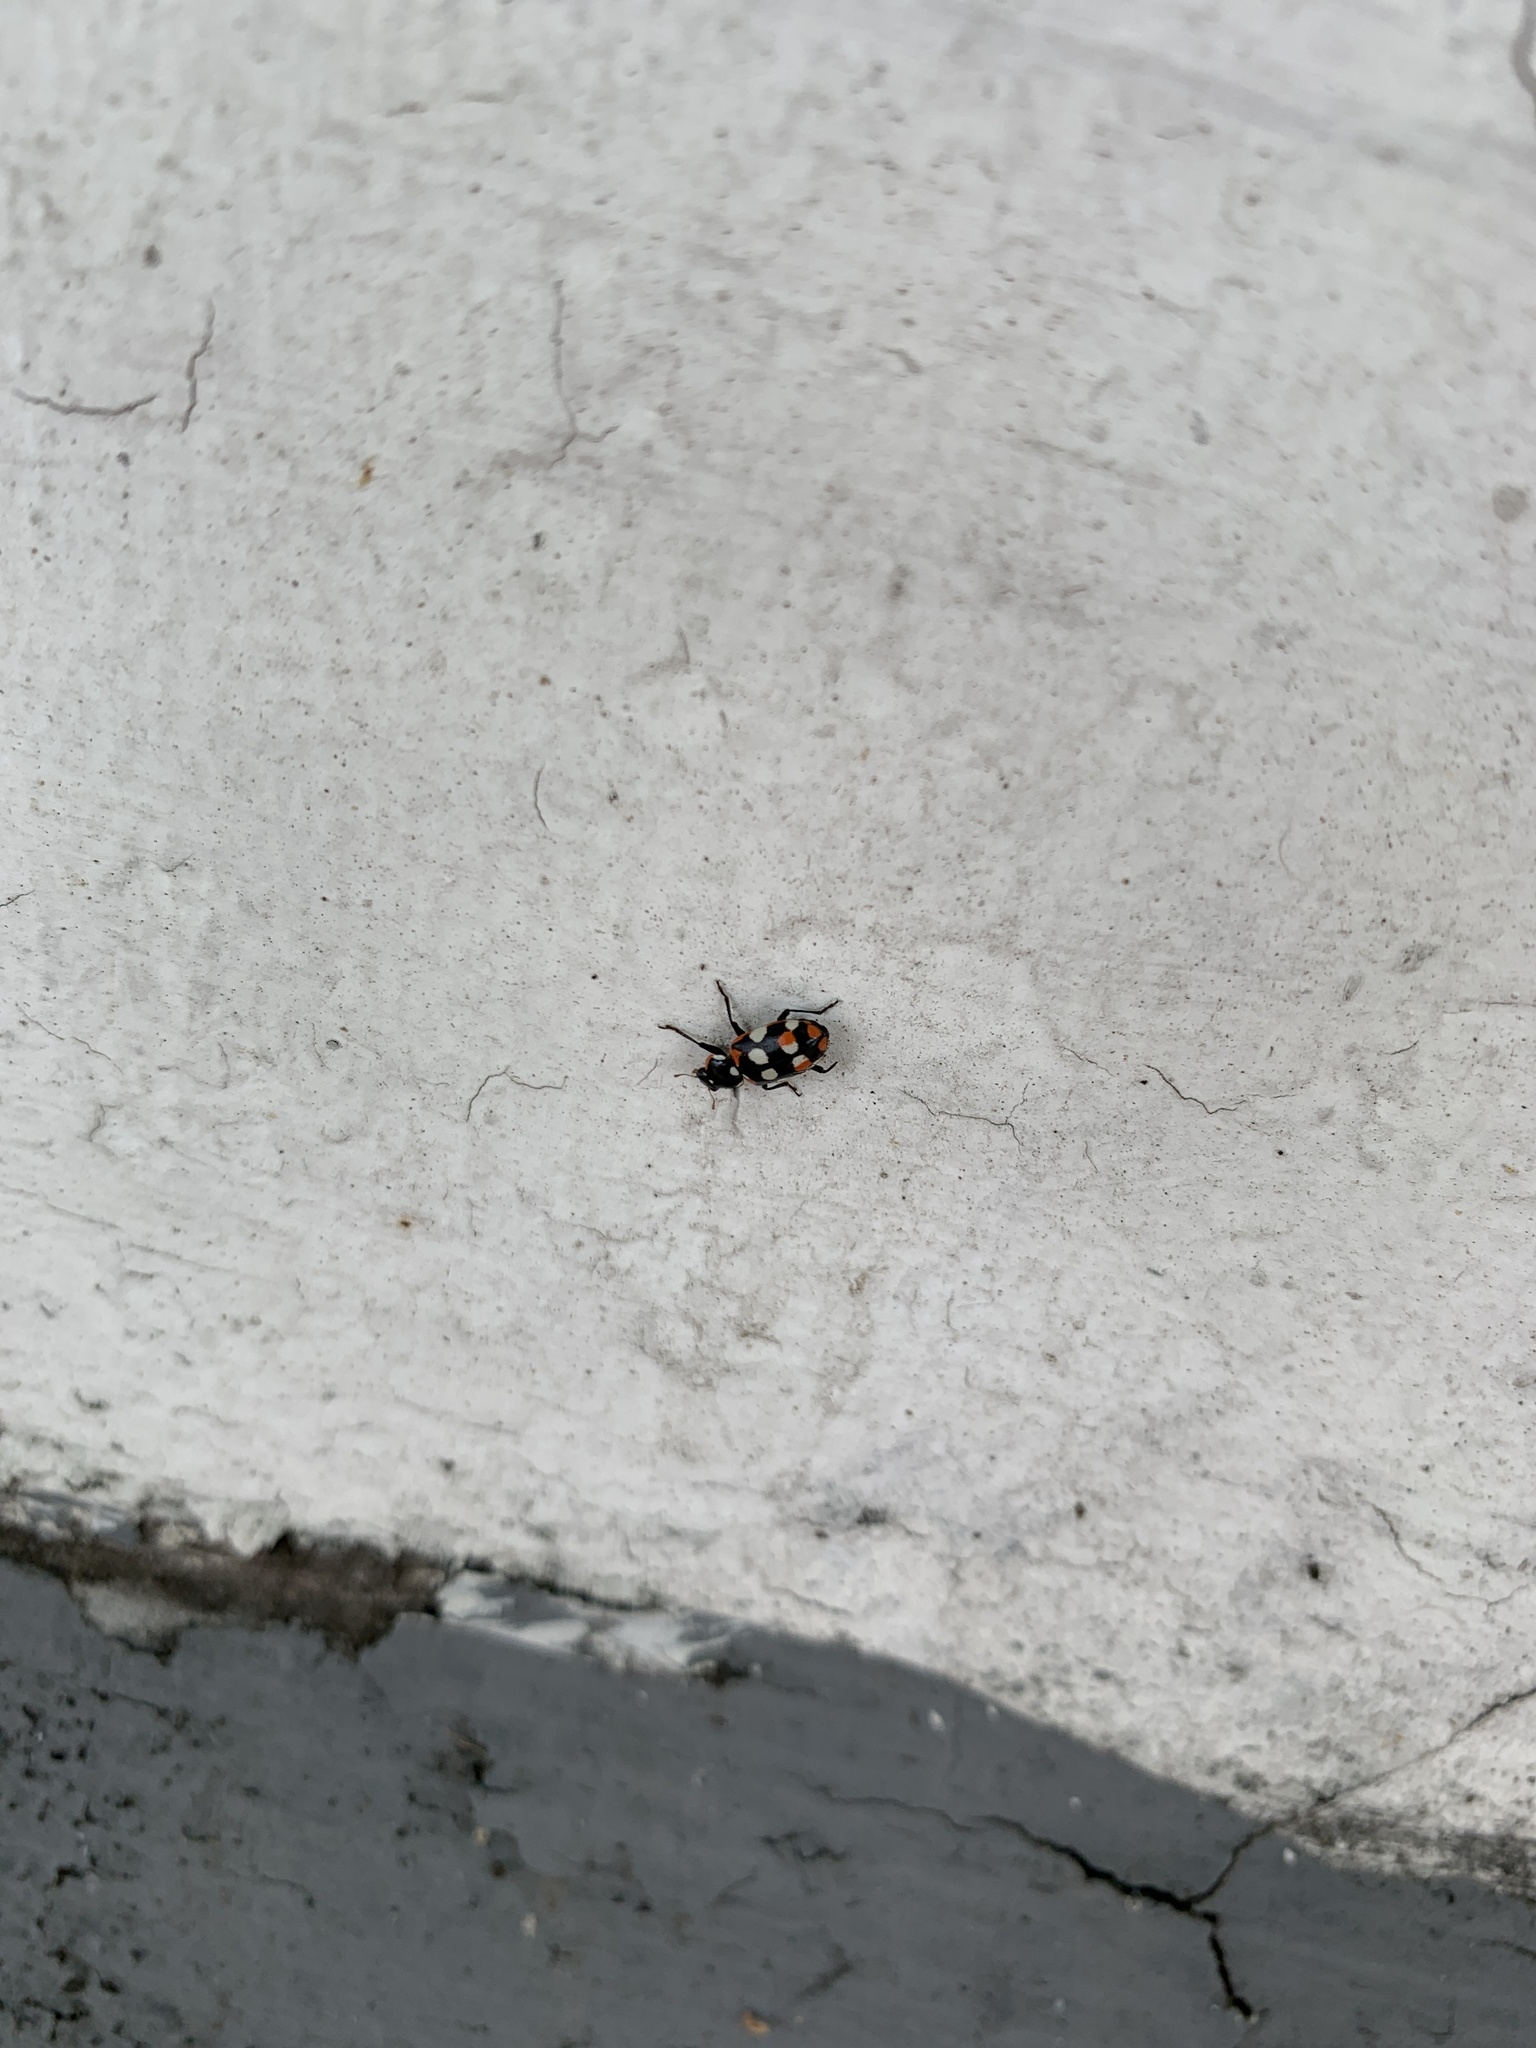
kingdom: Animalia
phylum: Arthropoda
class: Insecta
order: Coleoptera
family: Coccinellidae
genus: Eriopis
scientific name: Eriopis connexa
